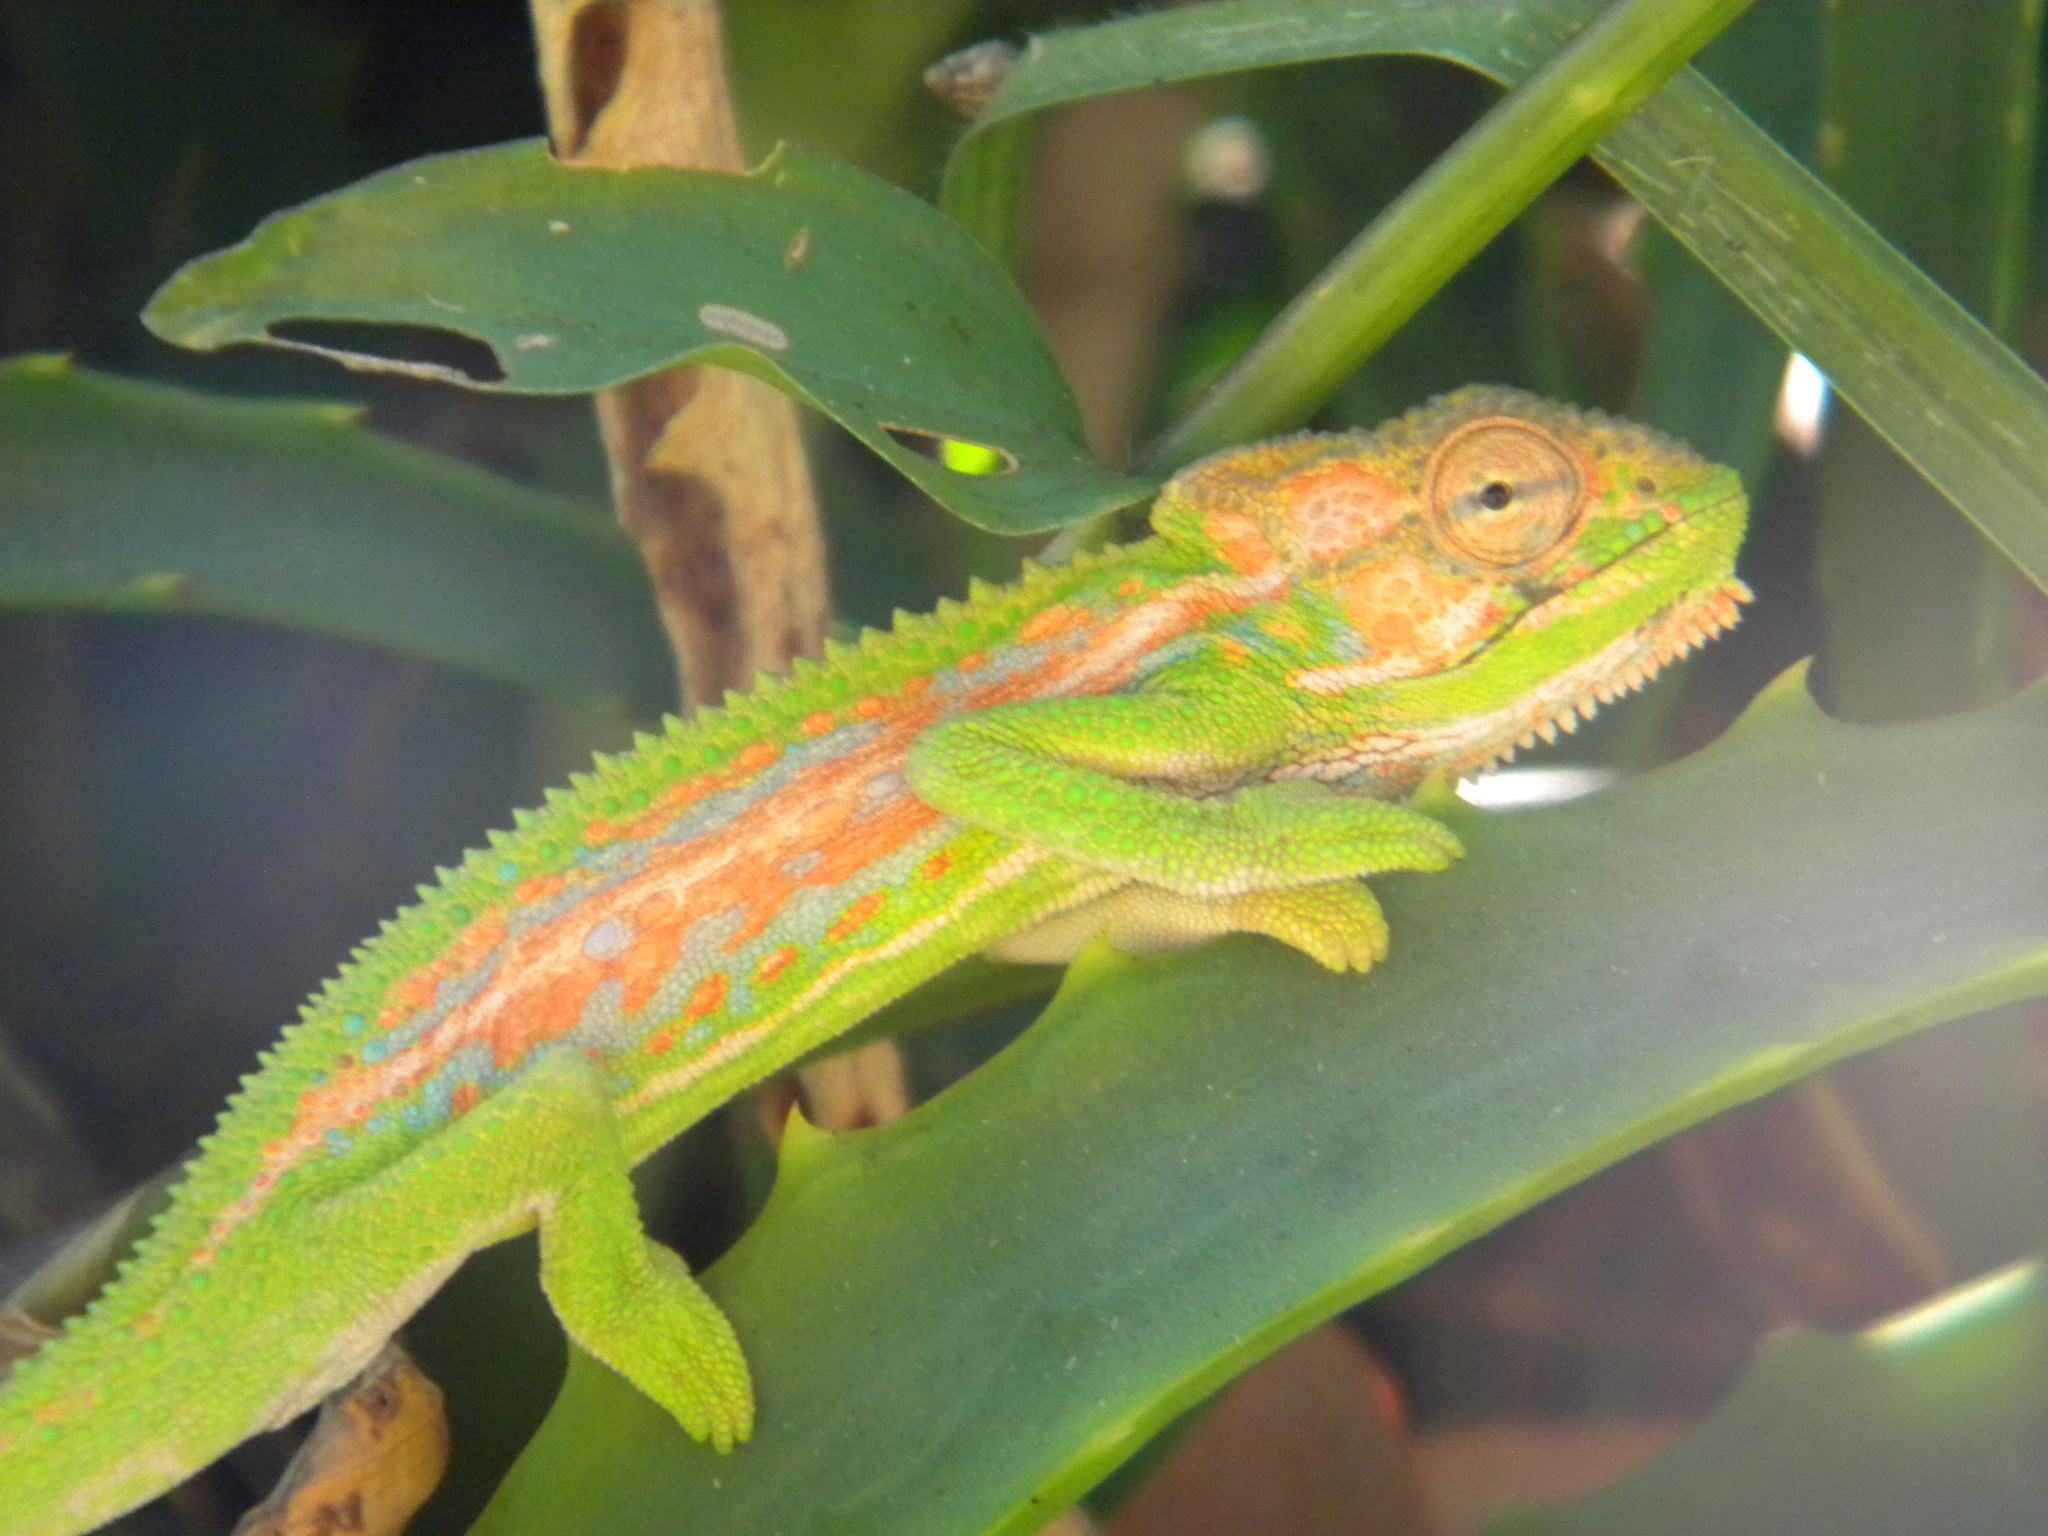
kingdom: Animalia
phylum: Chordata
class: Squamata
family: Chamaeleonidae
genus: Bradypodion
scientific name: Bradypodion pumilum
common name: Cape dwarf chameleon
